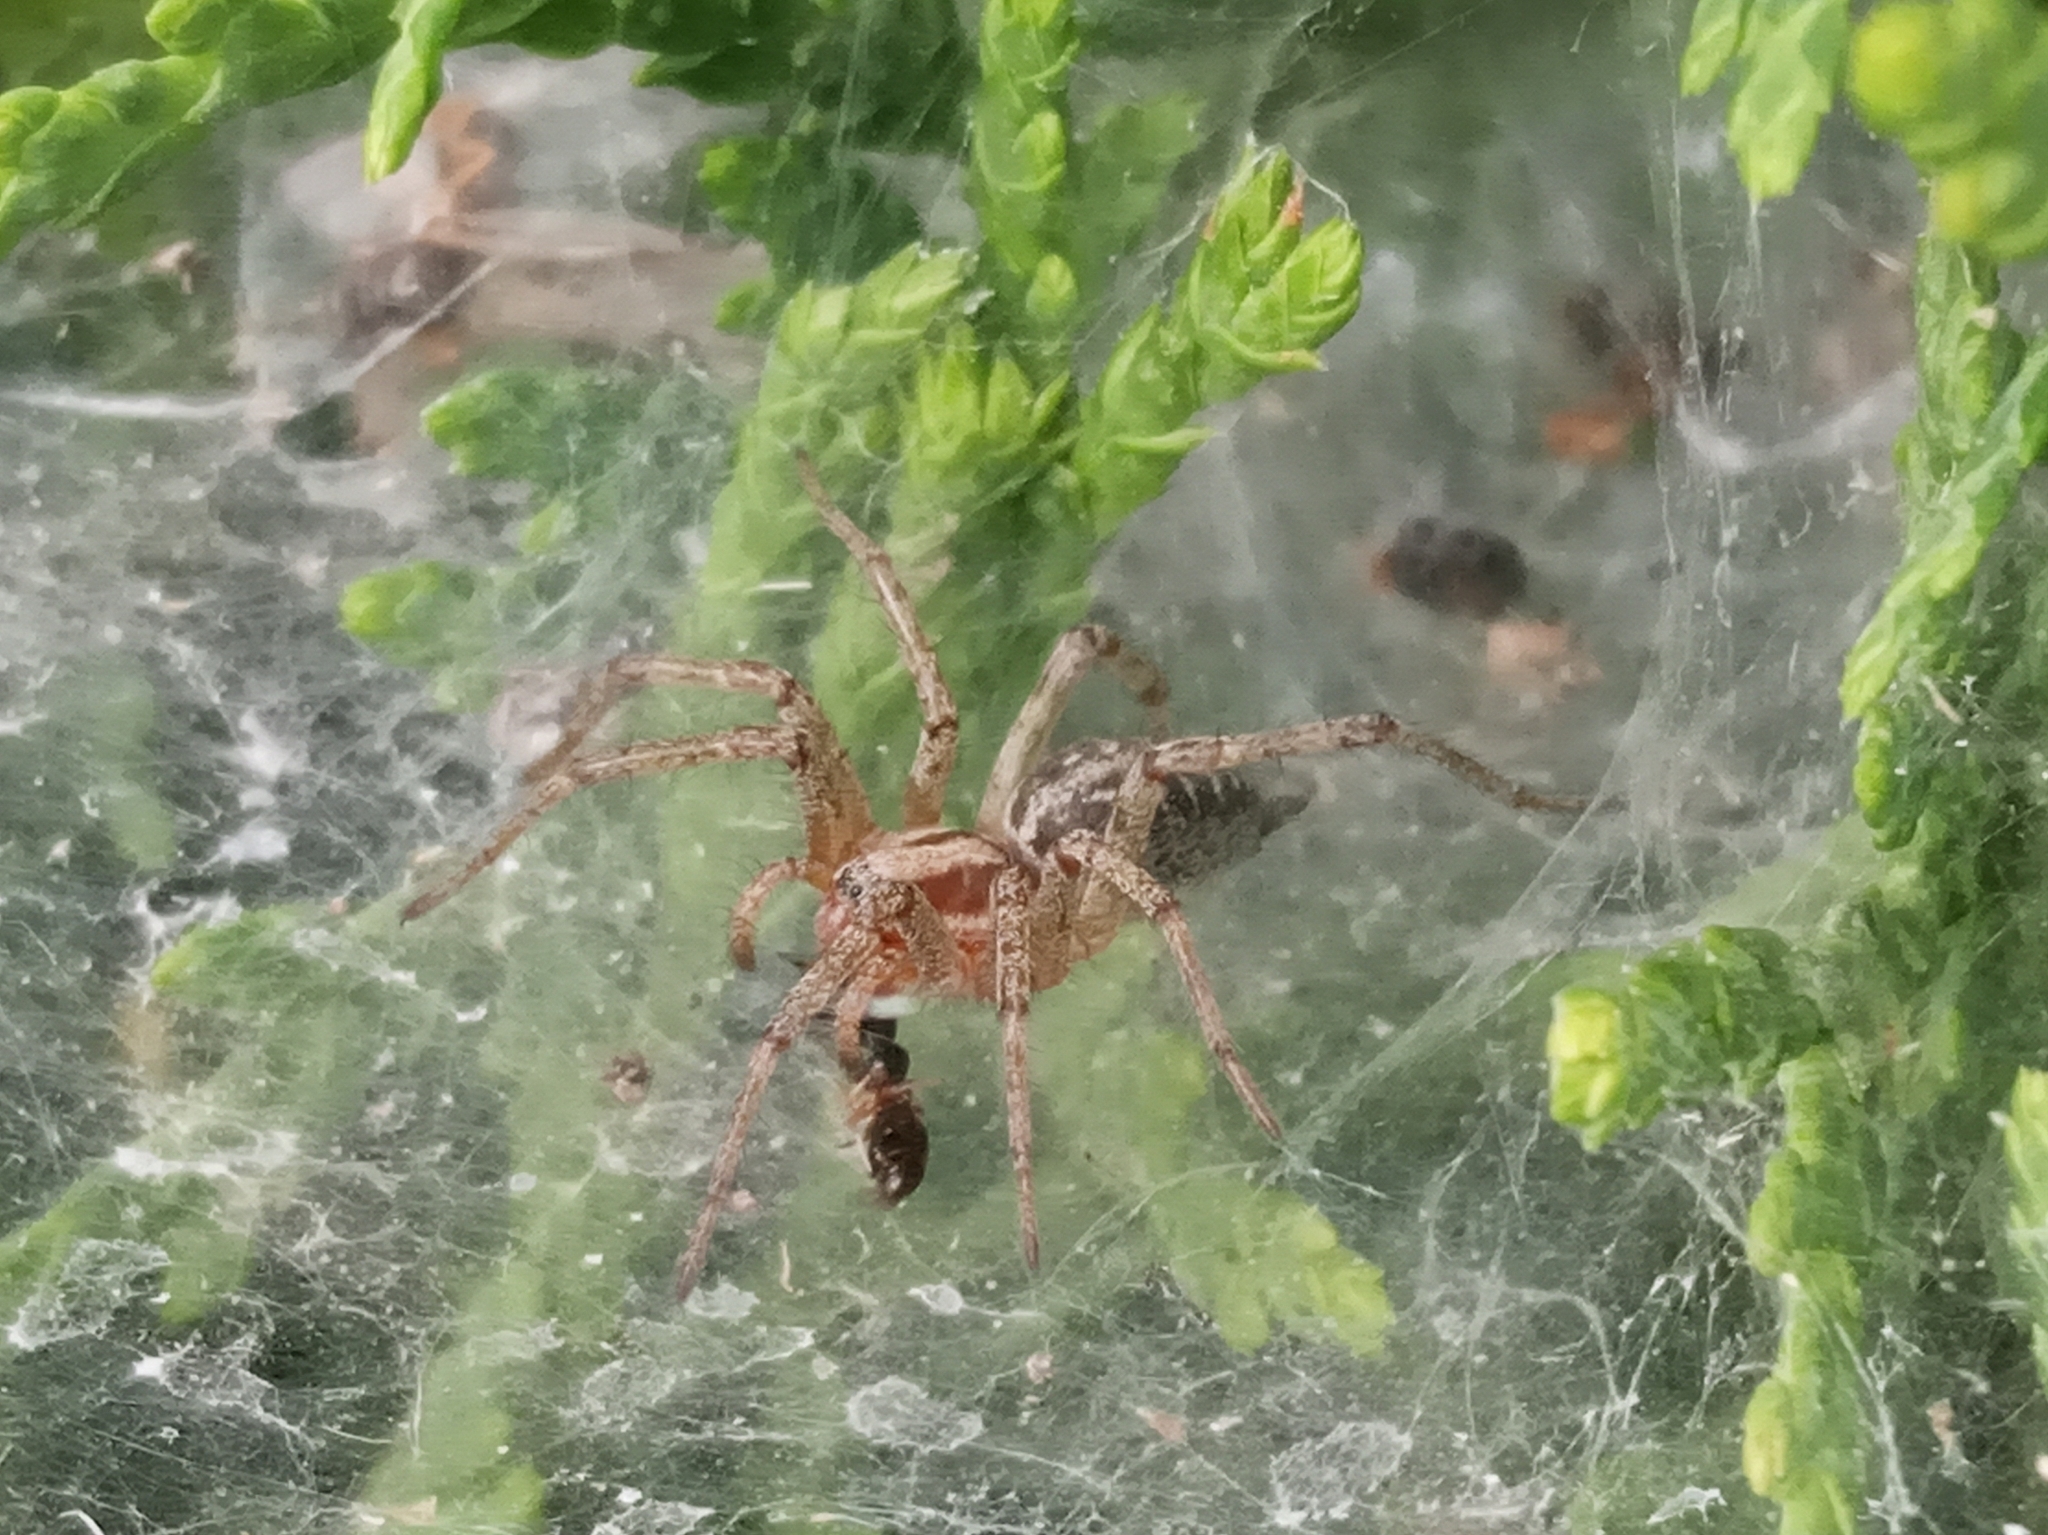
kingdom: Animalia
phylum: Arthropoda
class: Arachnida
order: Araneae
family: Agelenidae
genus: Agelena
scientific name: Agelena labyrinthica
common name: Labyrinth spider
